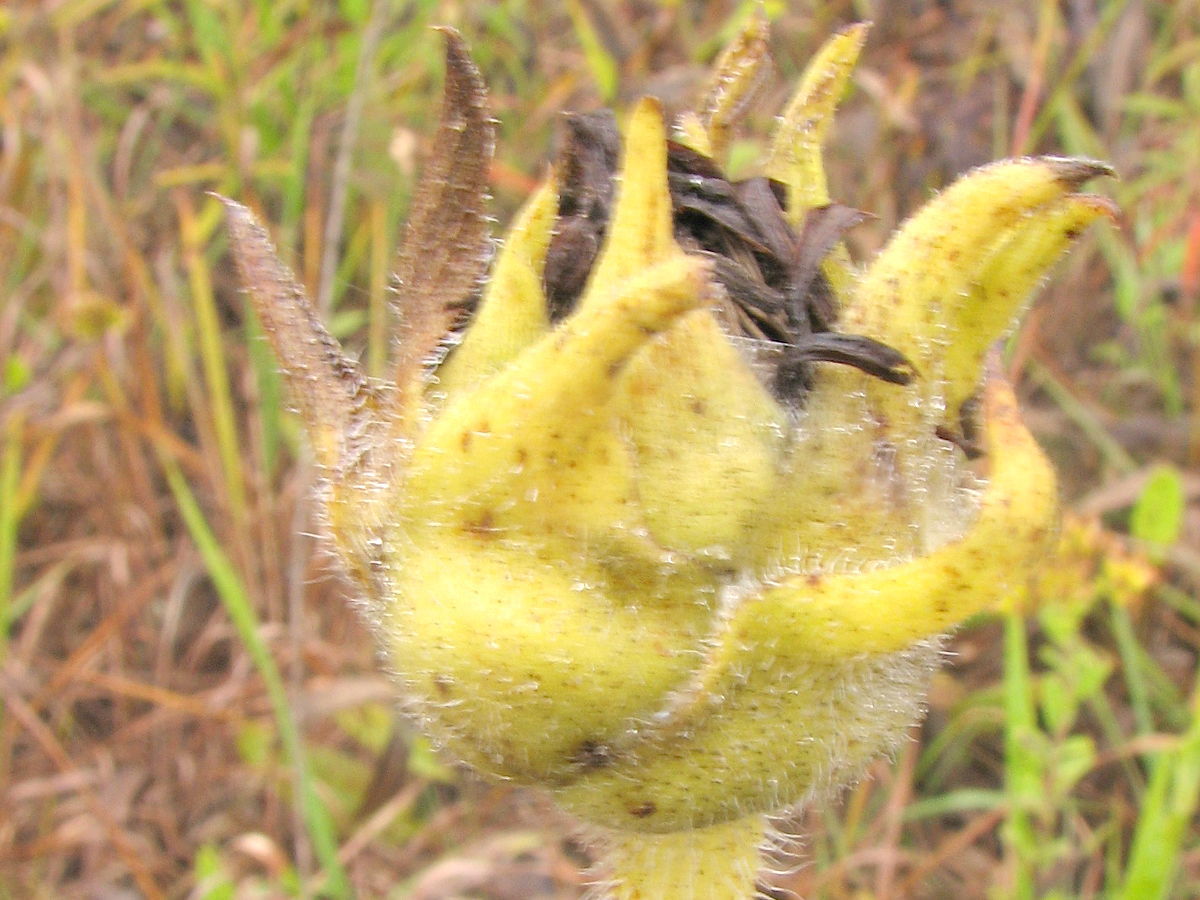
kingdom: Plantae
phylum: Tracheophyta
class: Magnoliopsida
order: Asterales
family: Asteraceae
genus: Silphium
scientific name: Silphium laciniatum
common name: Polarplant
